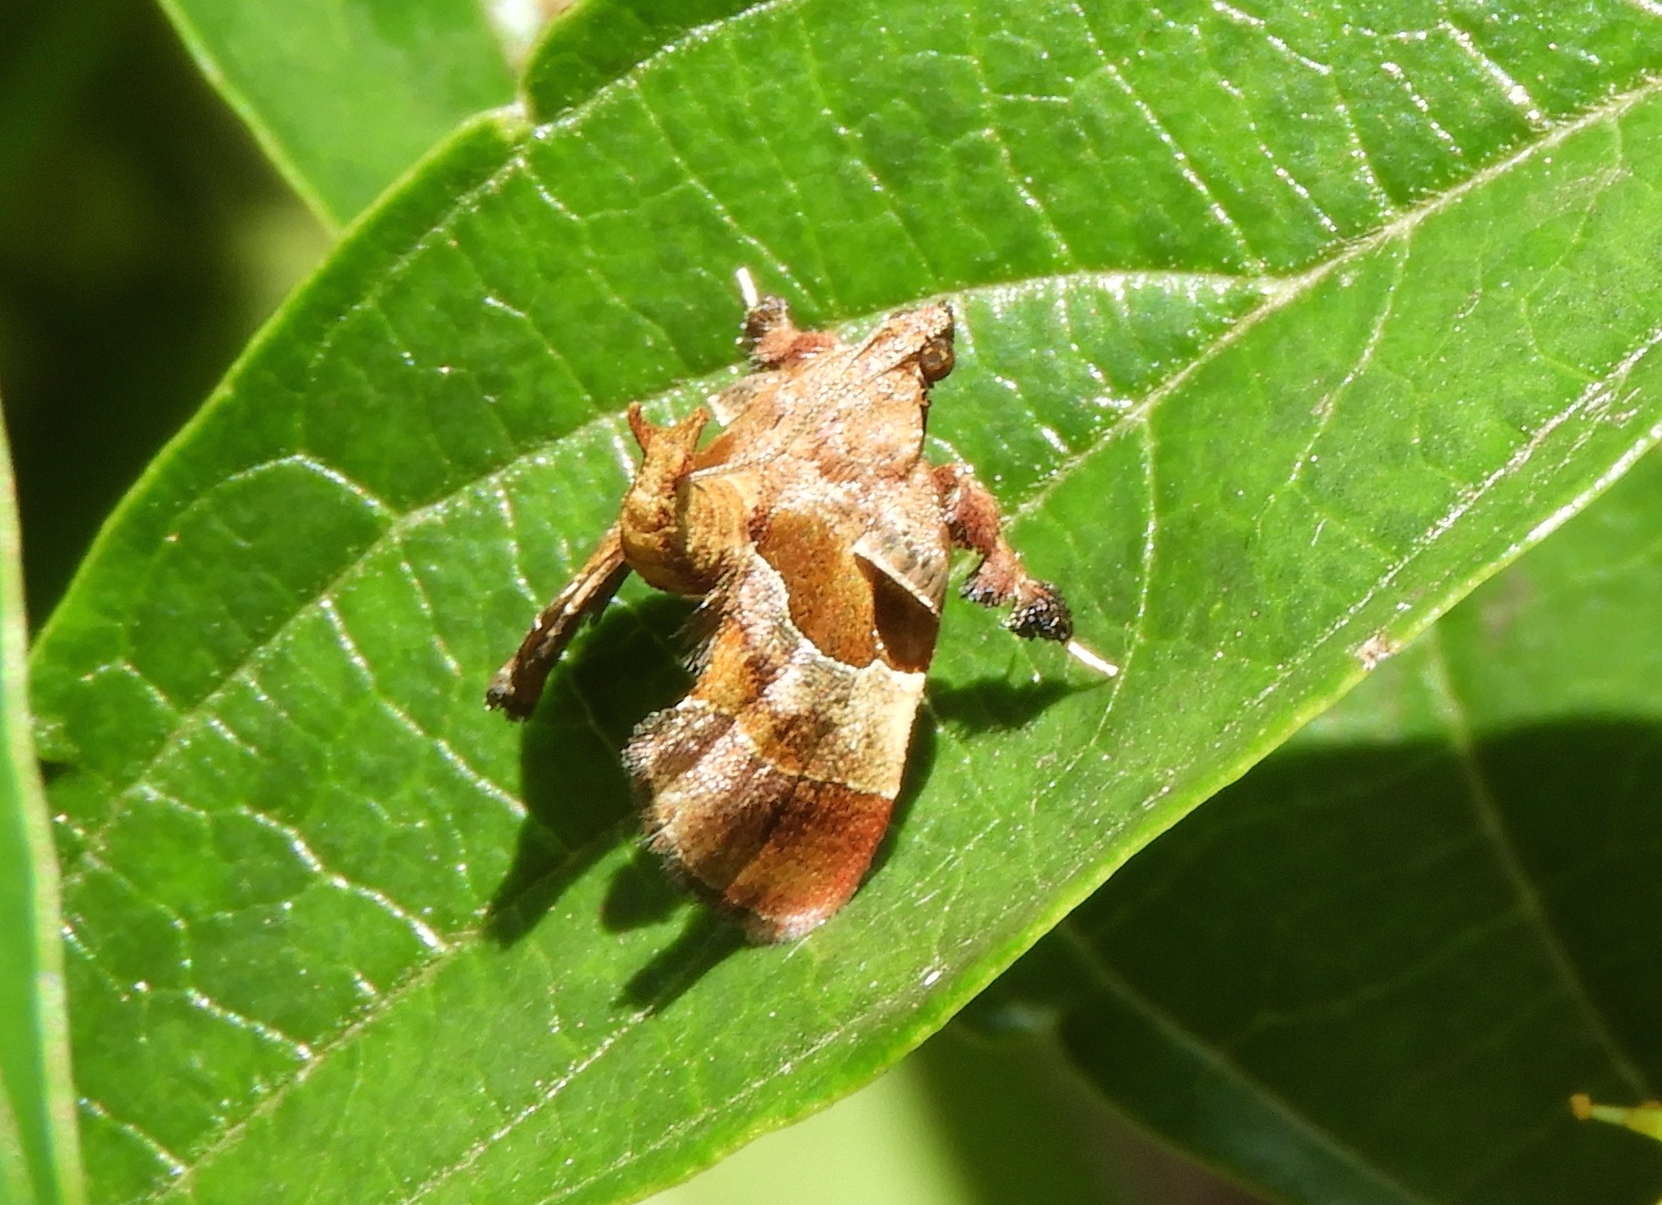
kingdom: Animalia
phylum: Arthropoda
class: Insecta
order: Lepidoptera
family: Pyralidae
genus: Tosale
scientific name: Tosale oviplagalis
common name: Dimorphic tosale moth
